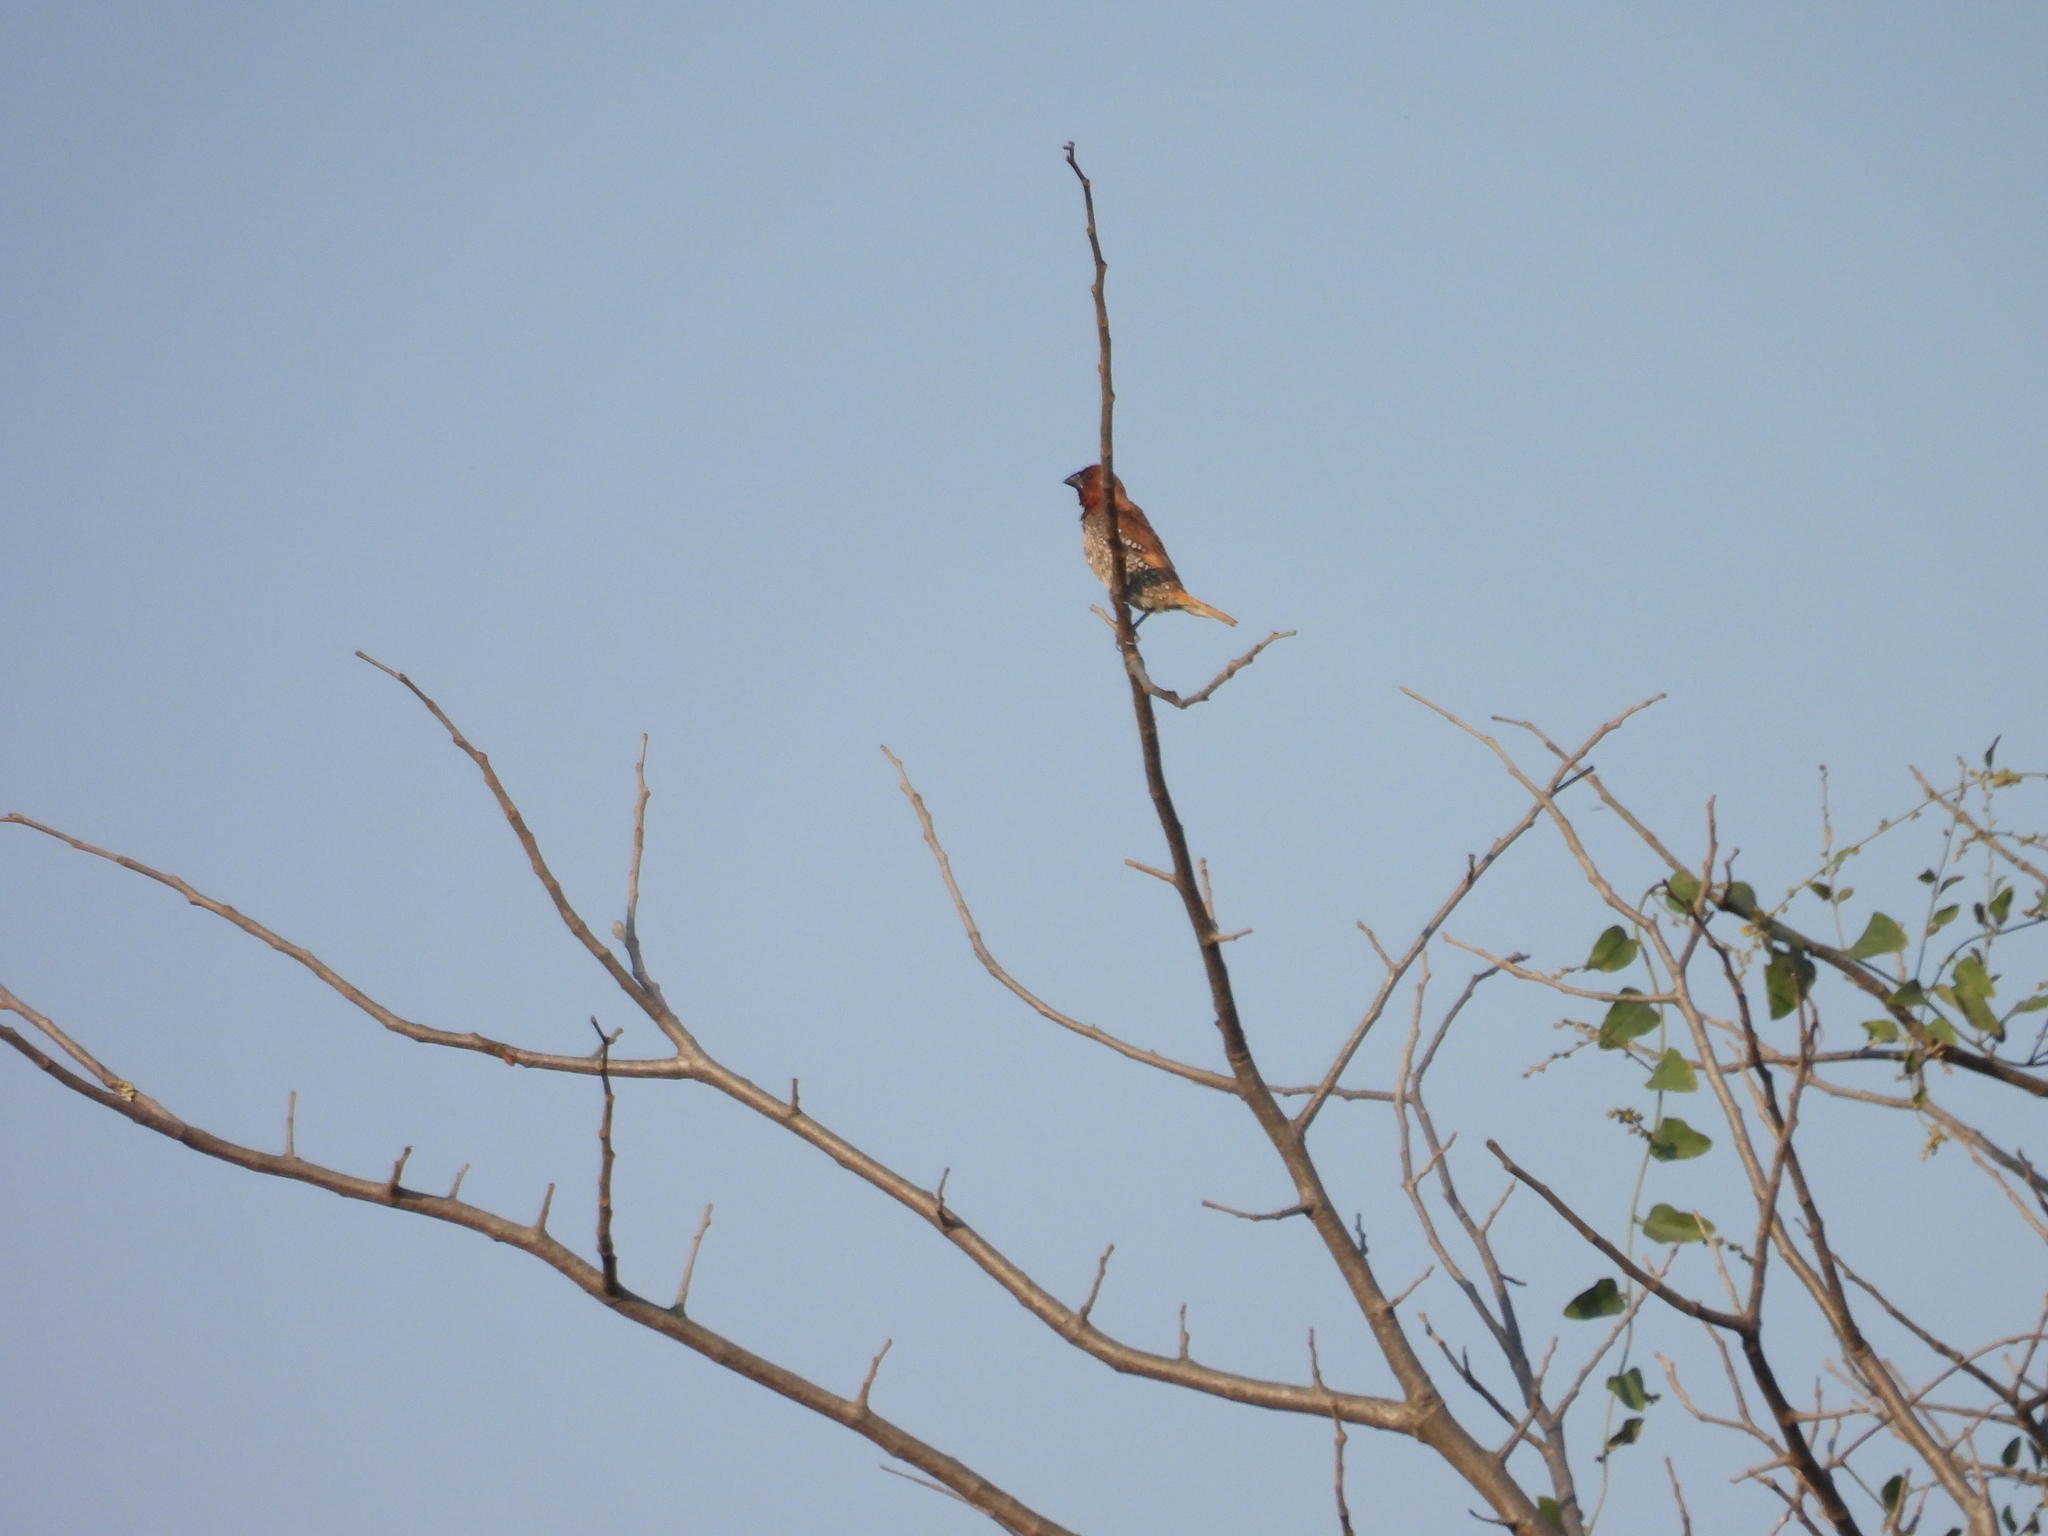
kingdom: Animalia
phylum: Chordata
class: Aves
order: Passeriformes
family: Estrildidae
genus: Lonchura
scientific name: Lonchura punctulata
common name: Scaly-breasted munia
